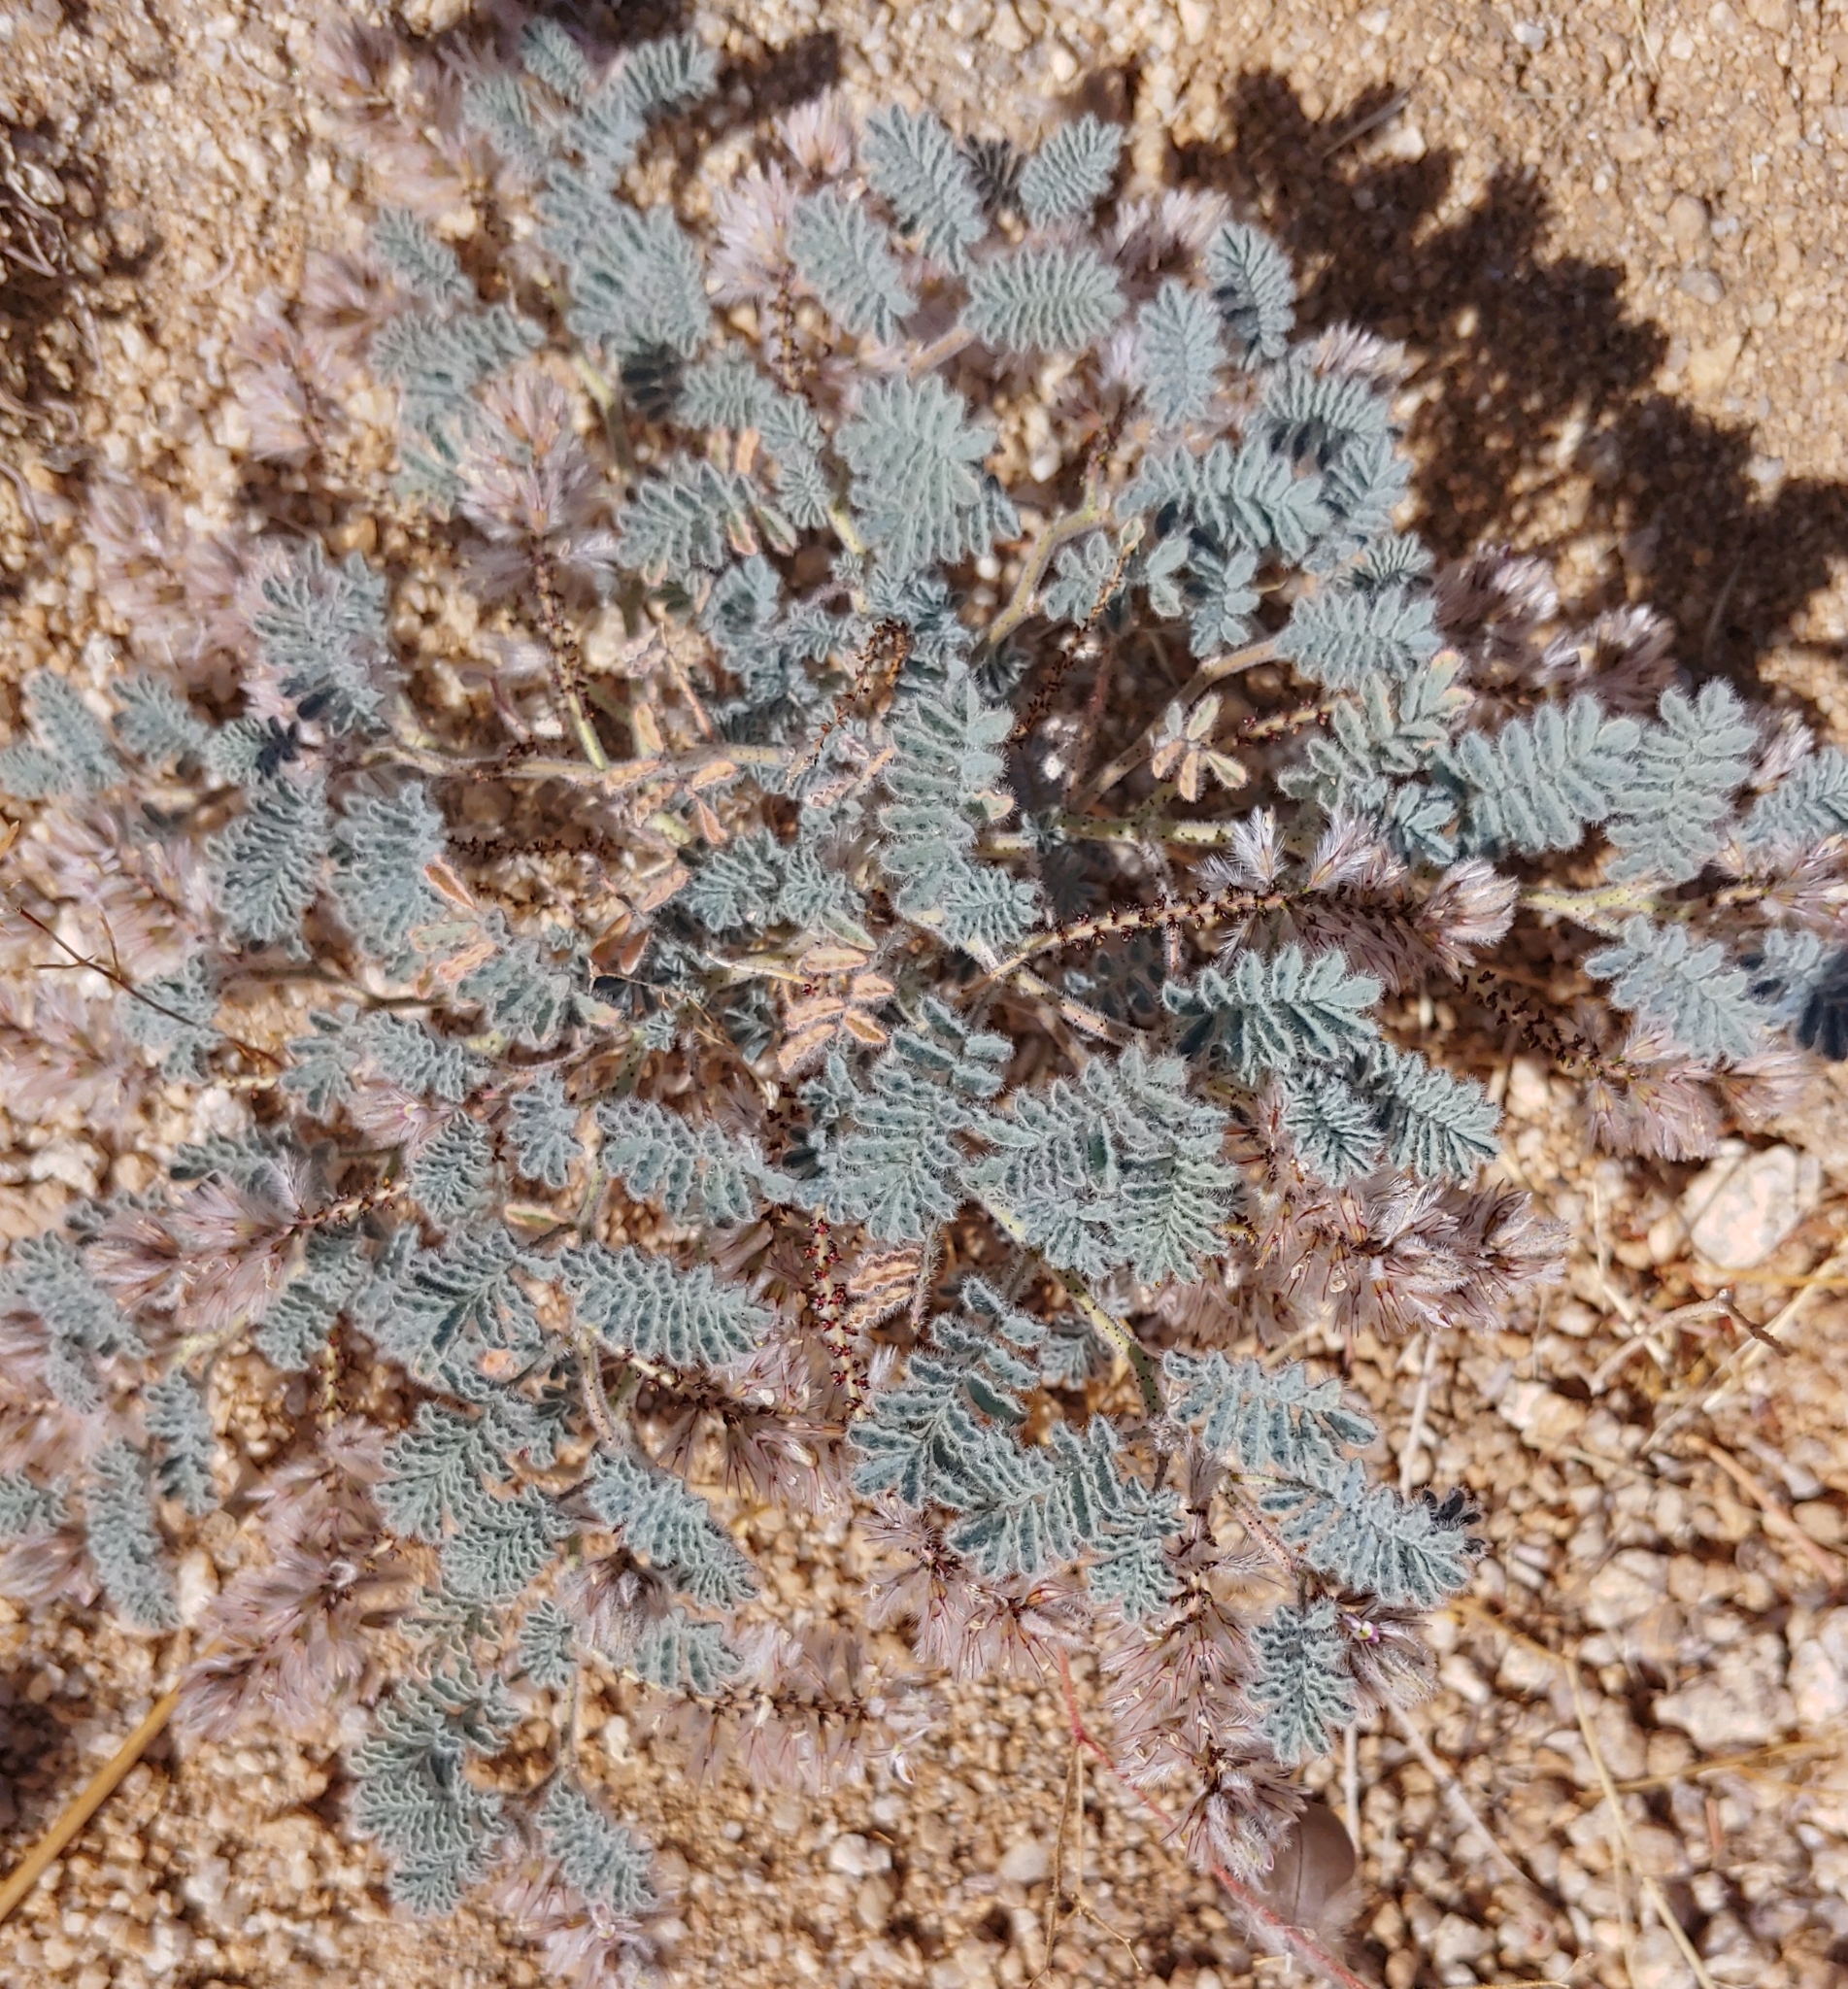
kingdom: Plantae
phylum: Tracheophyta
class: Magnoliopsida
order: Fabales
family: Fabaceae
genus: Dalea
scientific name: Dalea mollissima
